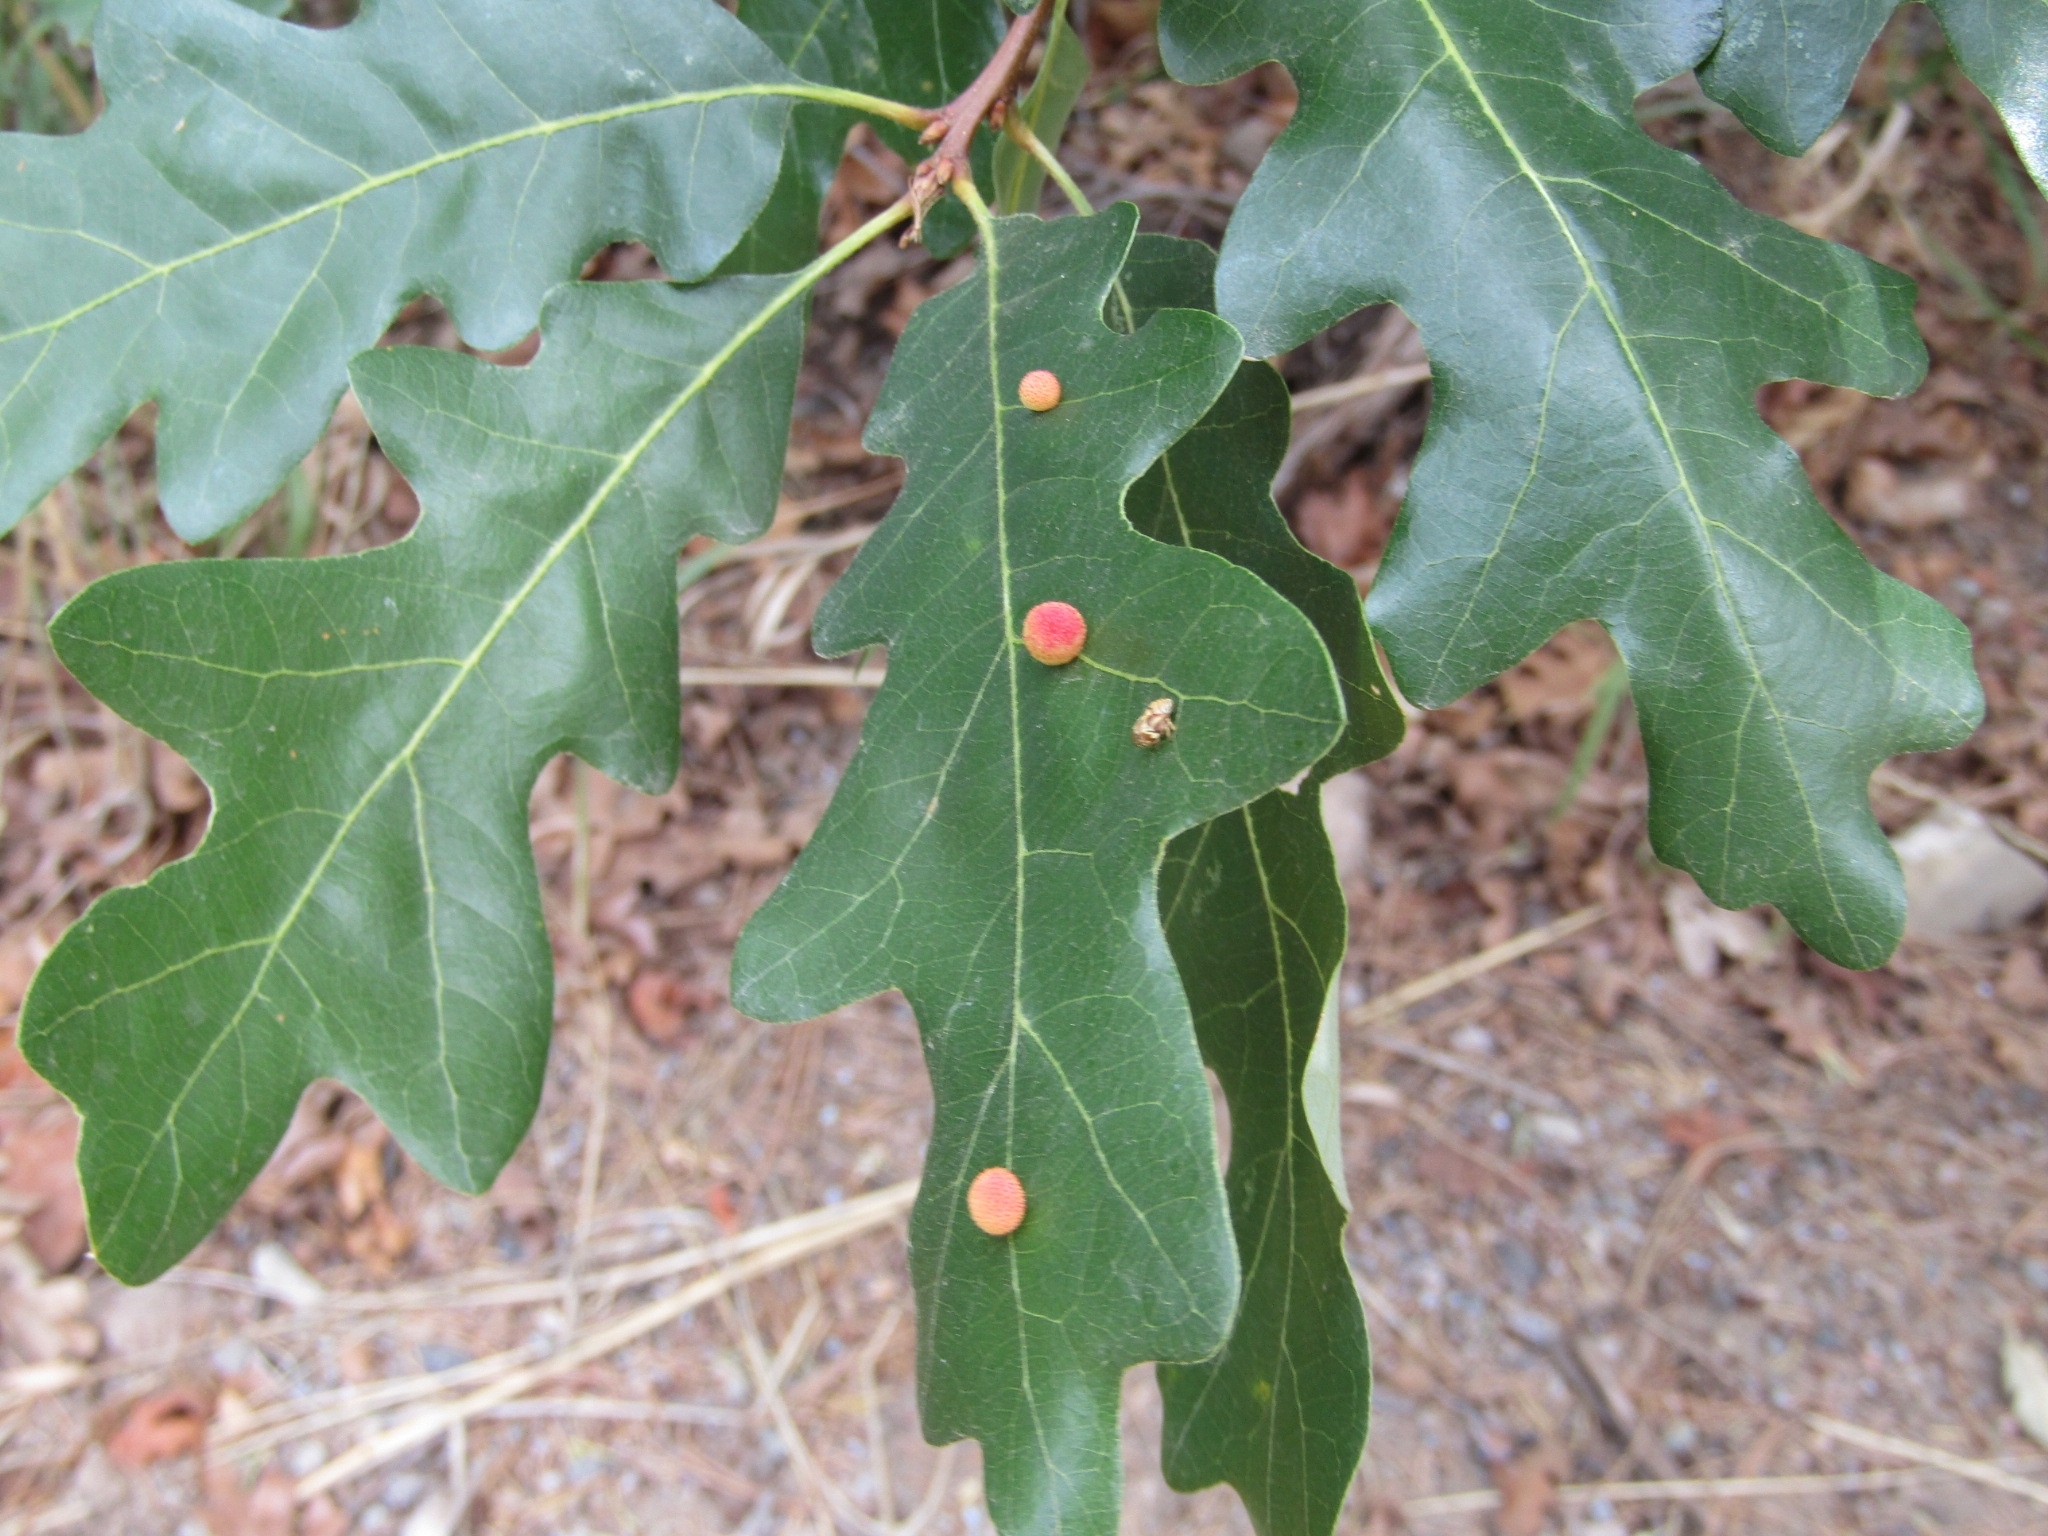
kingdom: Animalia
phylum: Arthropoda
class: Insecta
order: Hymenoptera
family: Cynipidae
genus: Acraspis
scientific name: Acraspis quercushirta
